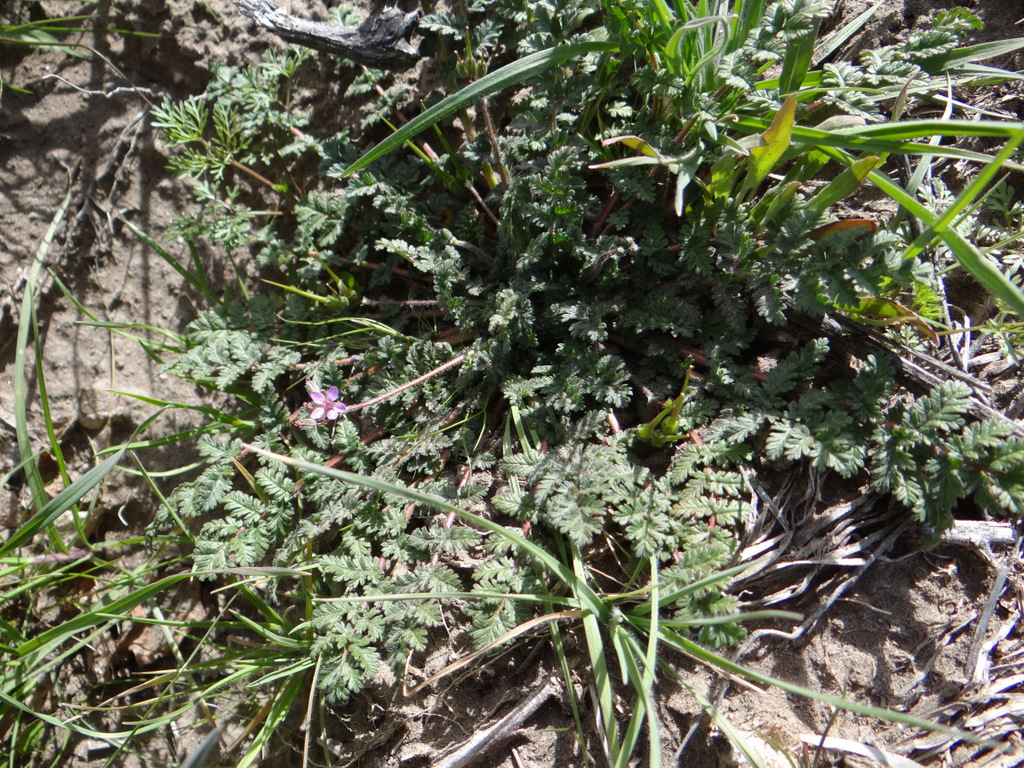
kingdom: Plantae
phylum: Tracheophyta
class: Magnoliopsida
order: Geraniales
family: Geraniaceae
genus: Erodium
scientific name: Erodium cicutarium
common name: Common stork's-bill
